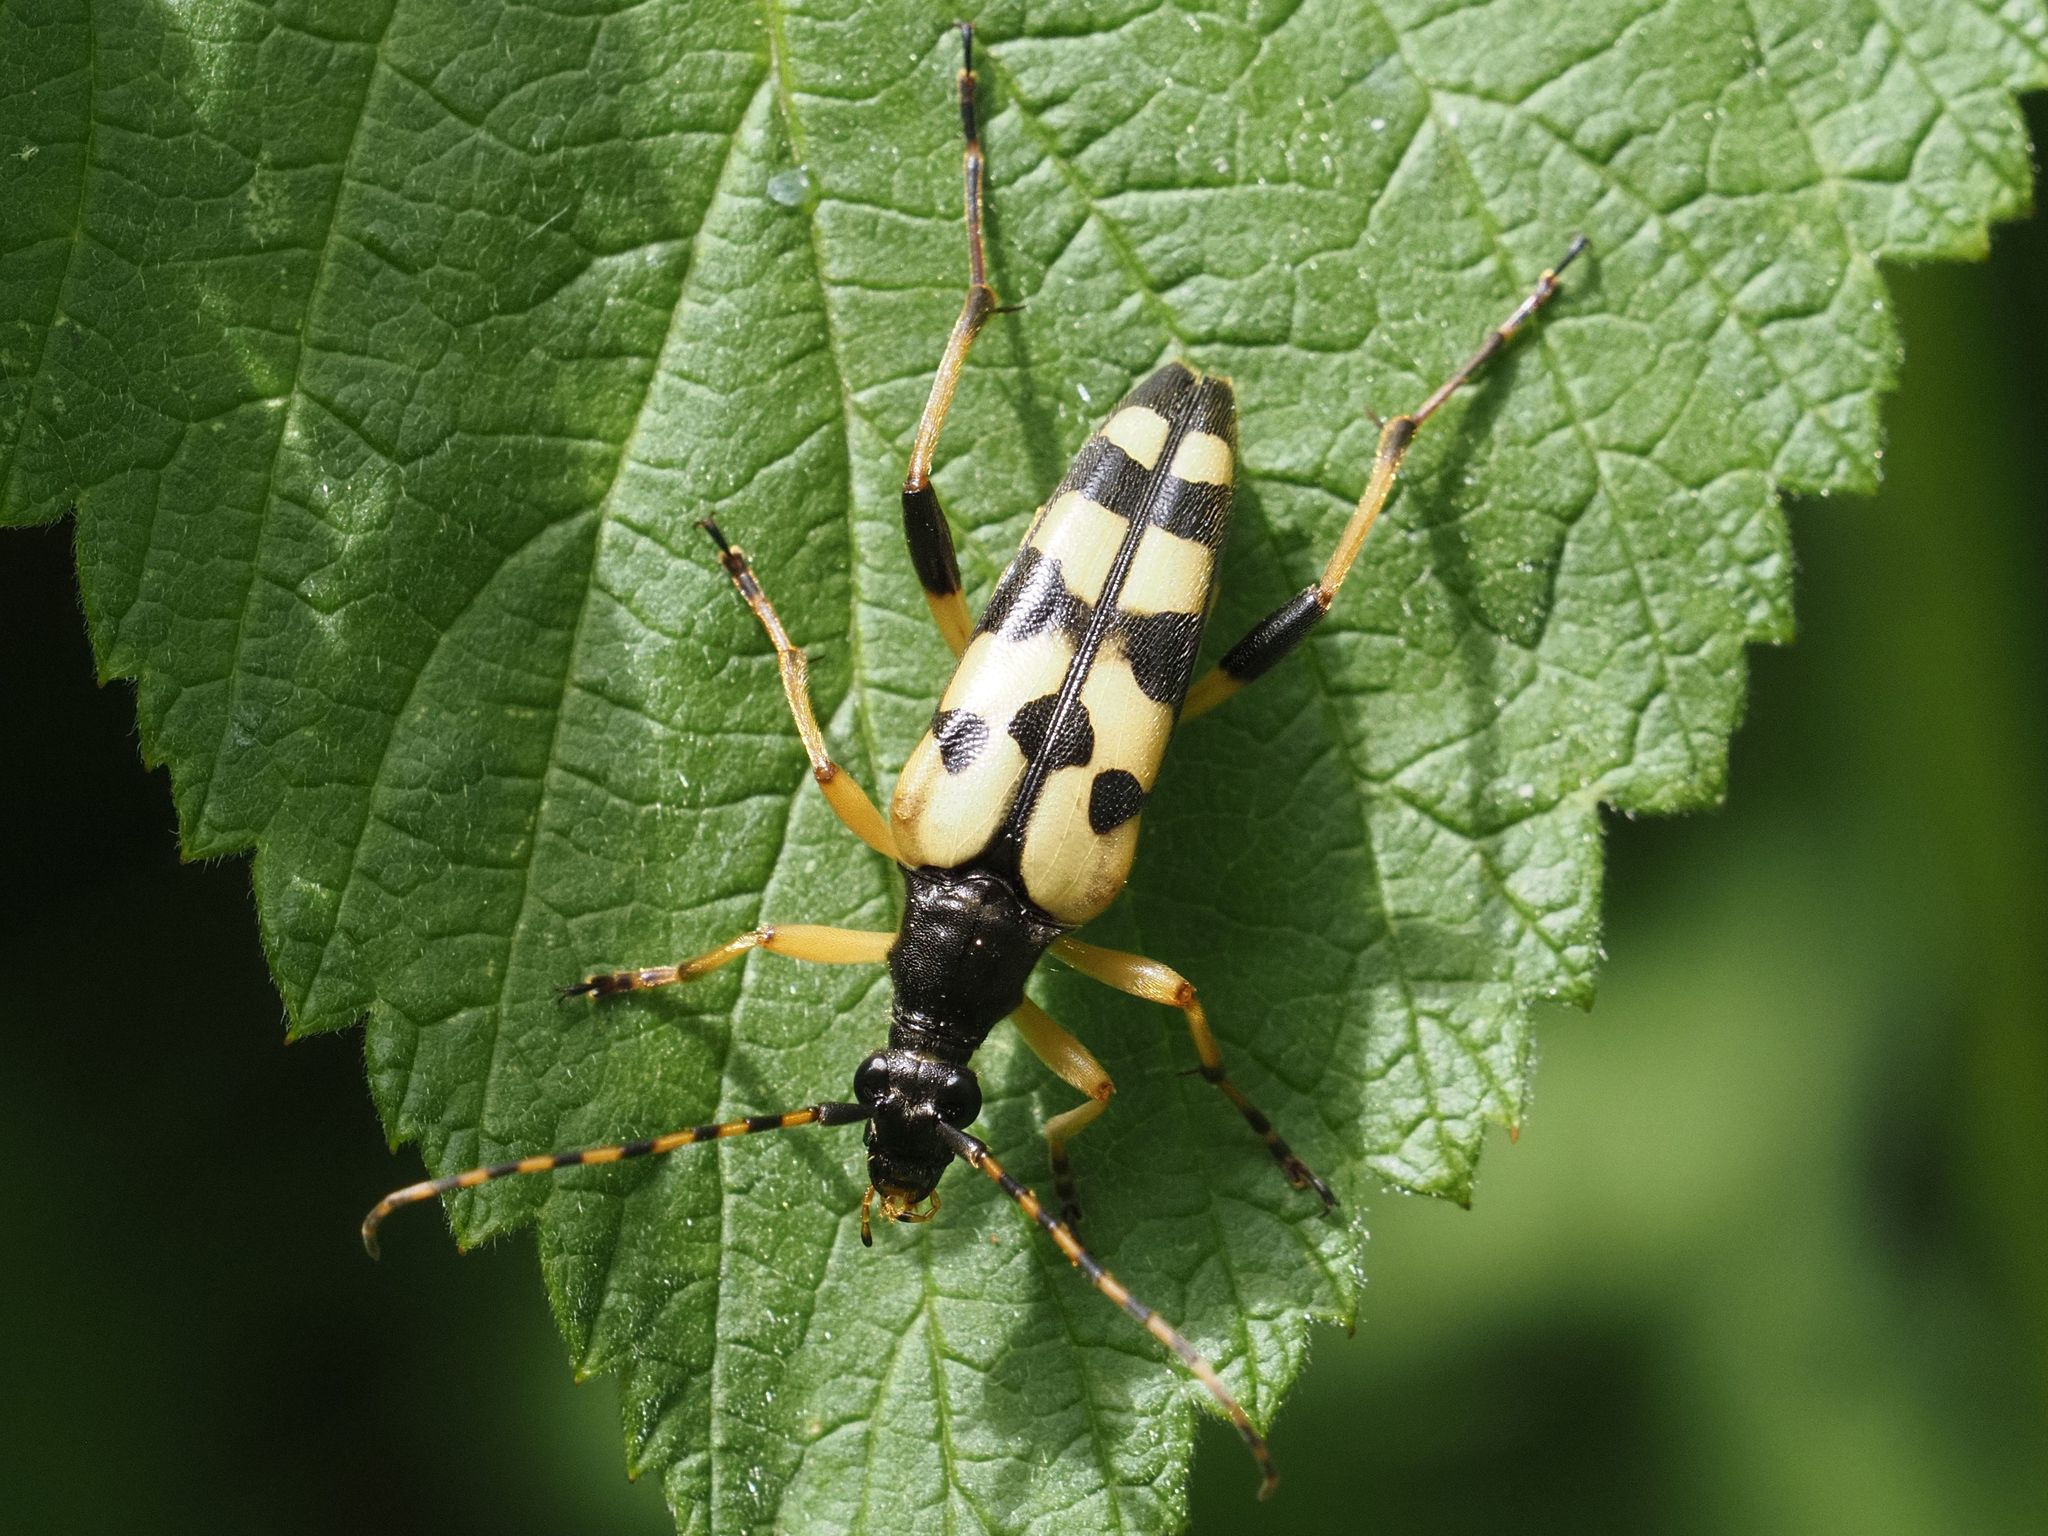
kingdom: Animalia
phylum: Arthropoda
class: Insecta
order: Coleoptera
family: Cerambycidae
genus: Rutpela
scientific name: Rutpela maculata
